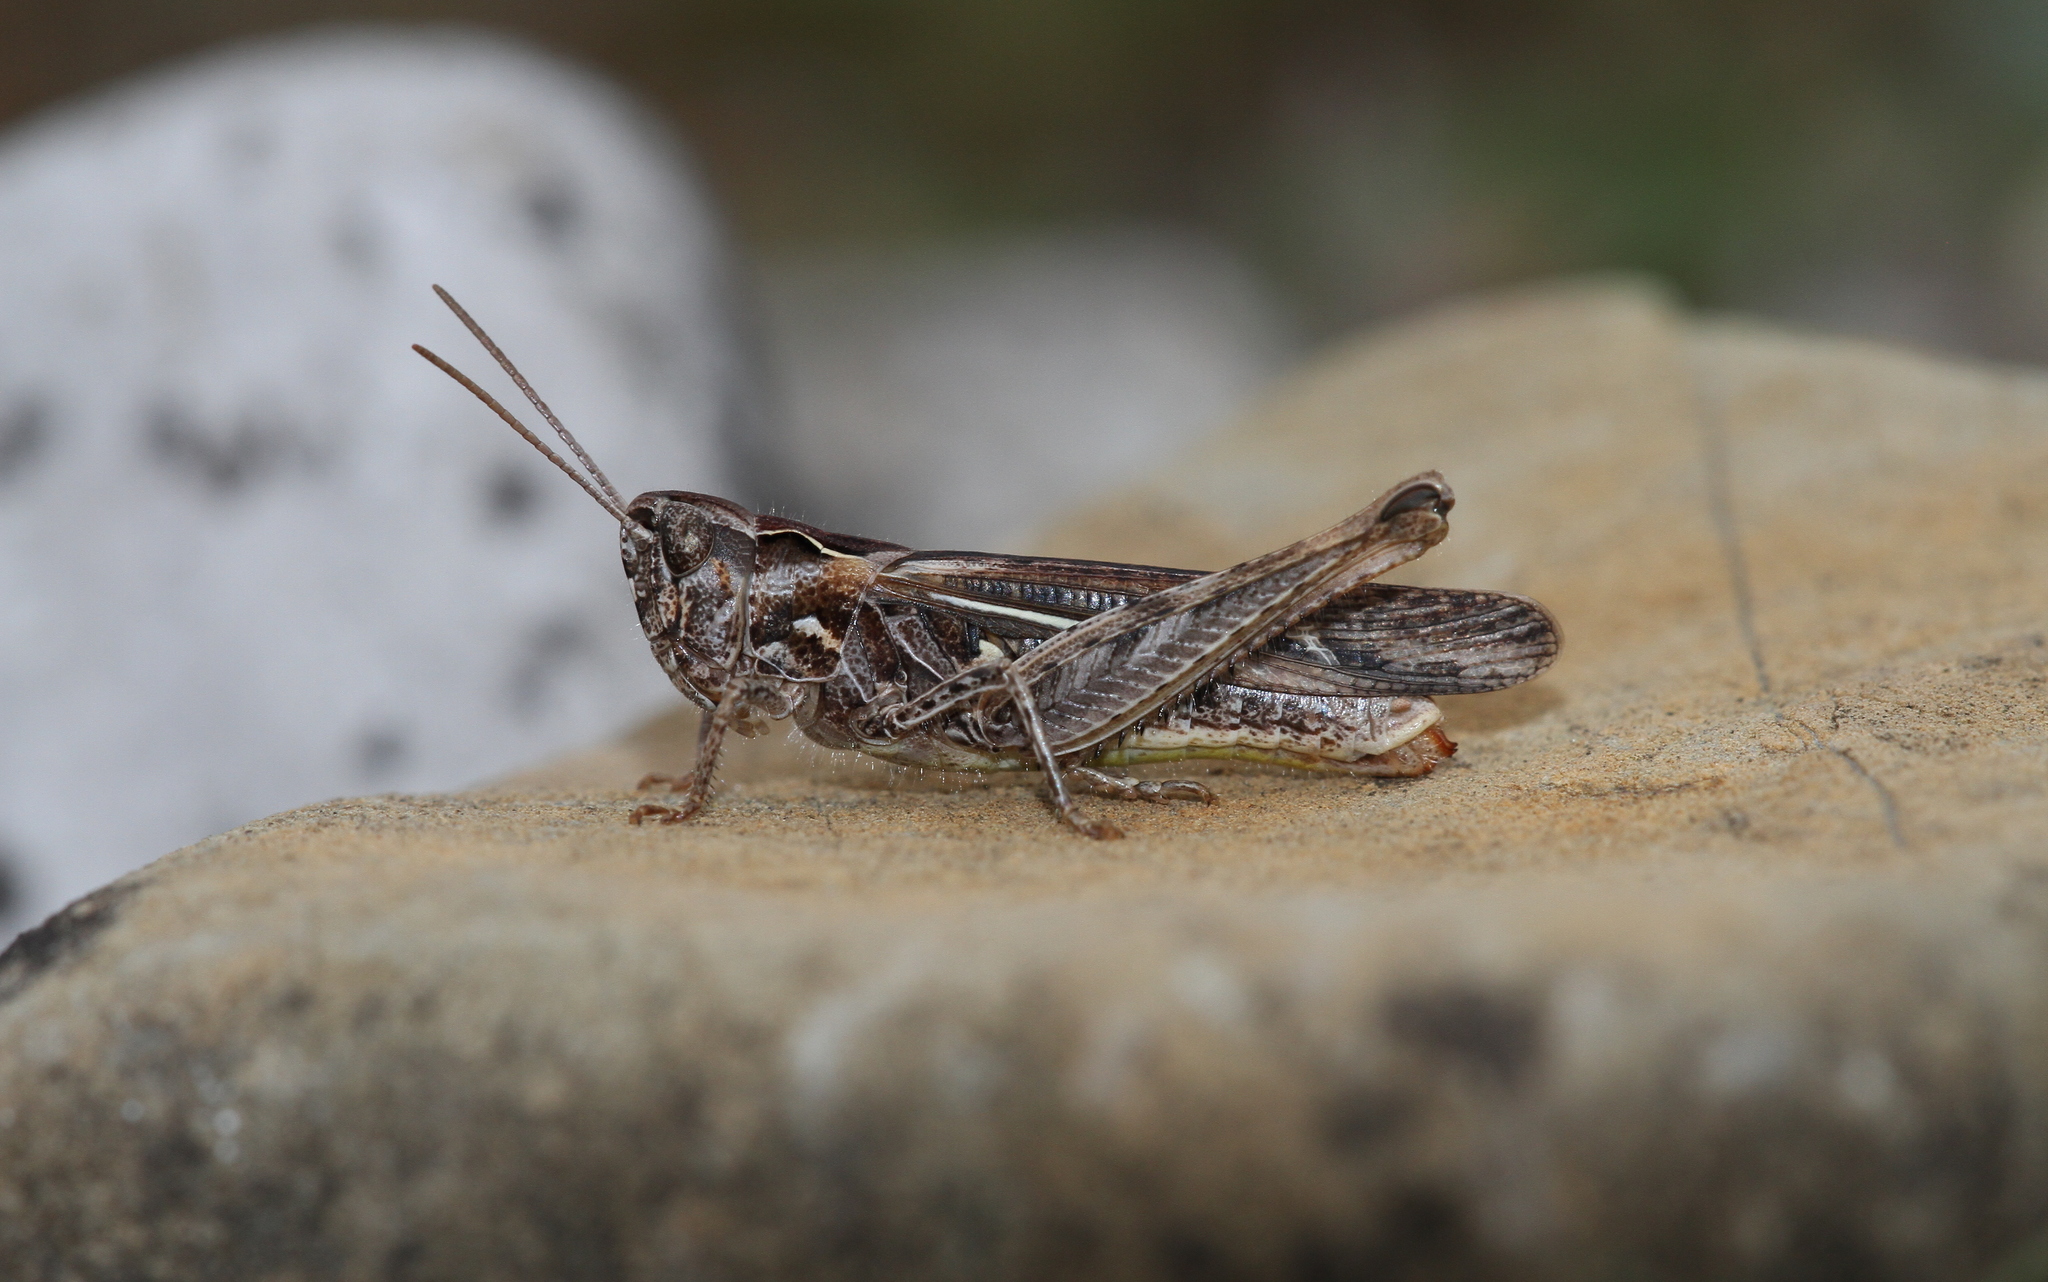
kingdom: Animalia
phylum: Arthropoda
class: Insecta
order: Orthoptera
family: Acrididae
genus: Chorthippus
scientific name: Chorthippus biguttulus
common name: Bow-winged grasshopper
